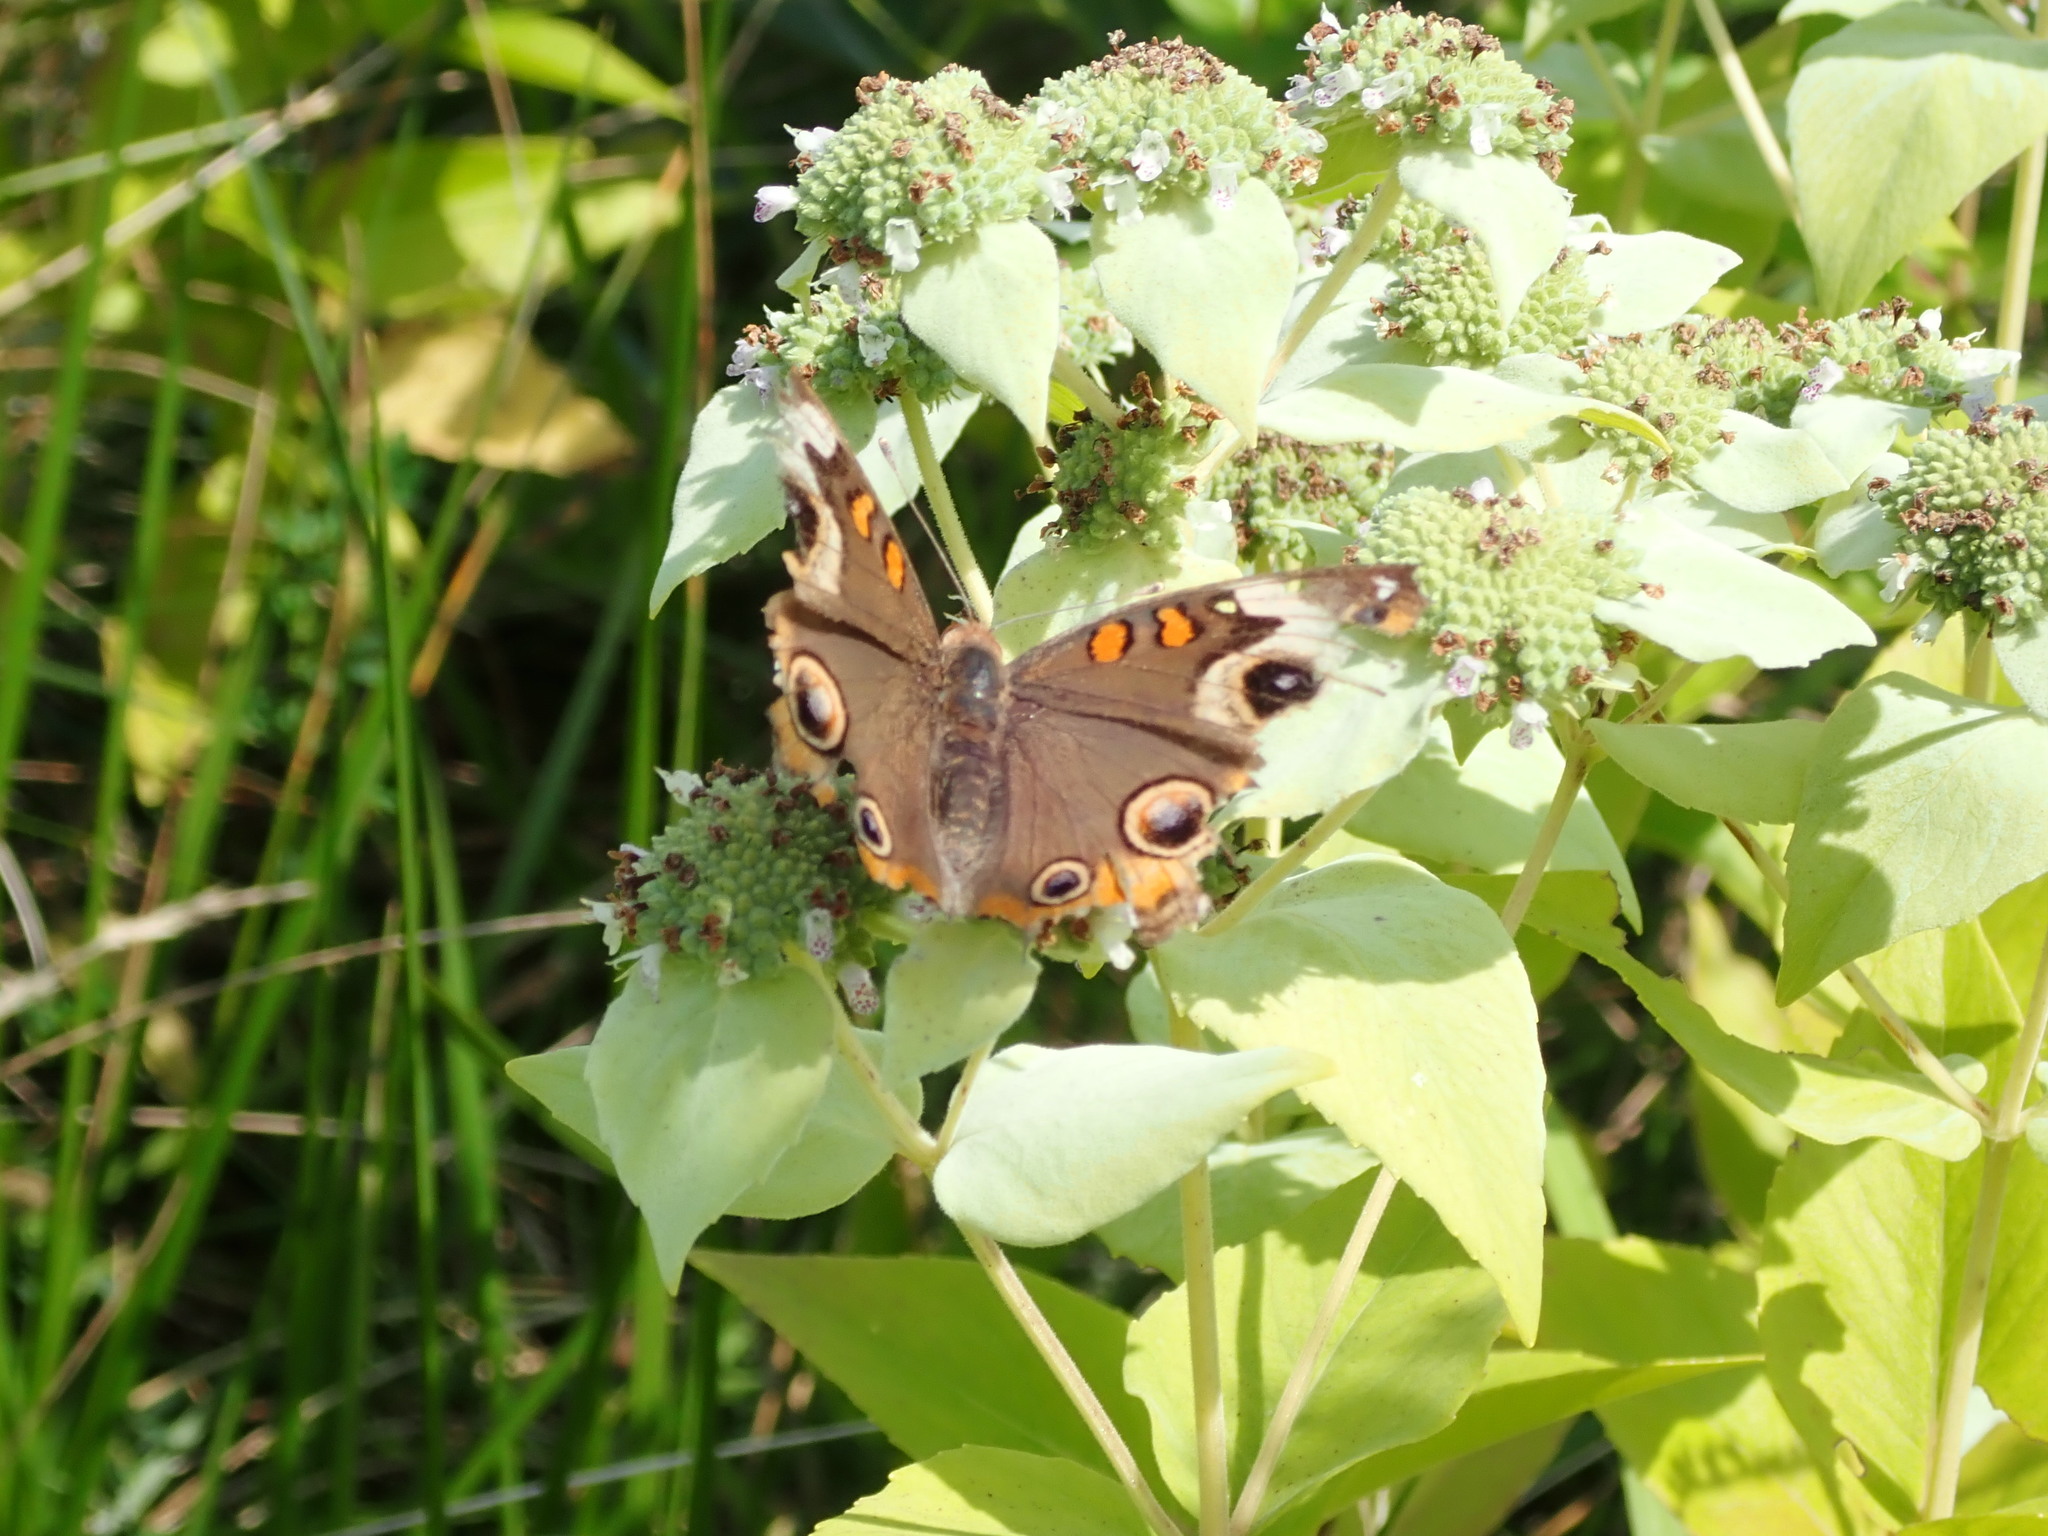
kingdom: Animalia
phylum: Arthropoda
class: Insecta
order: Lepidoptera
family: Nymphalidae
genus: Junonia
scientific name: Junonia coenia
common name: Common buckeye
